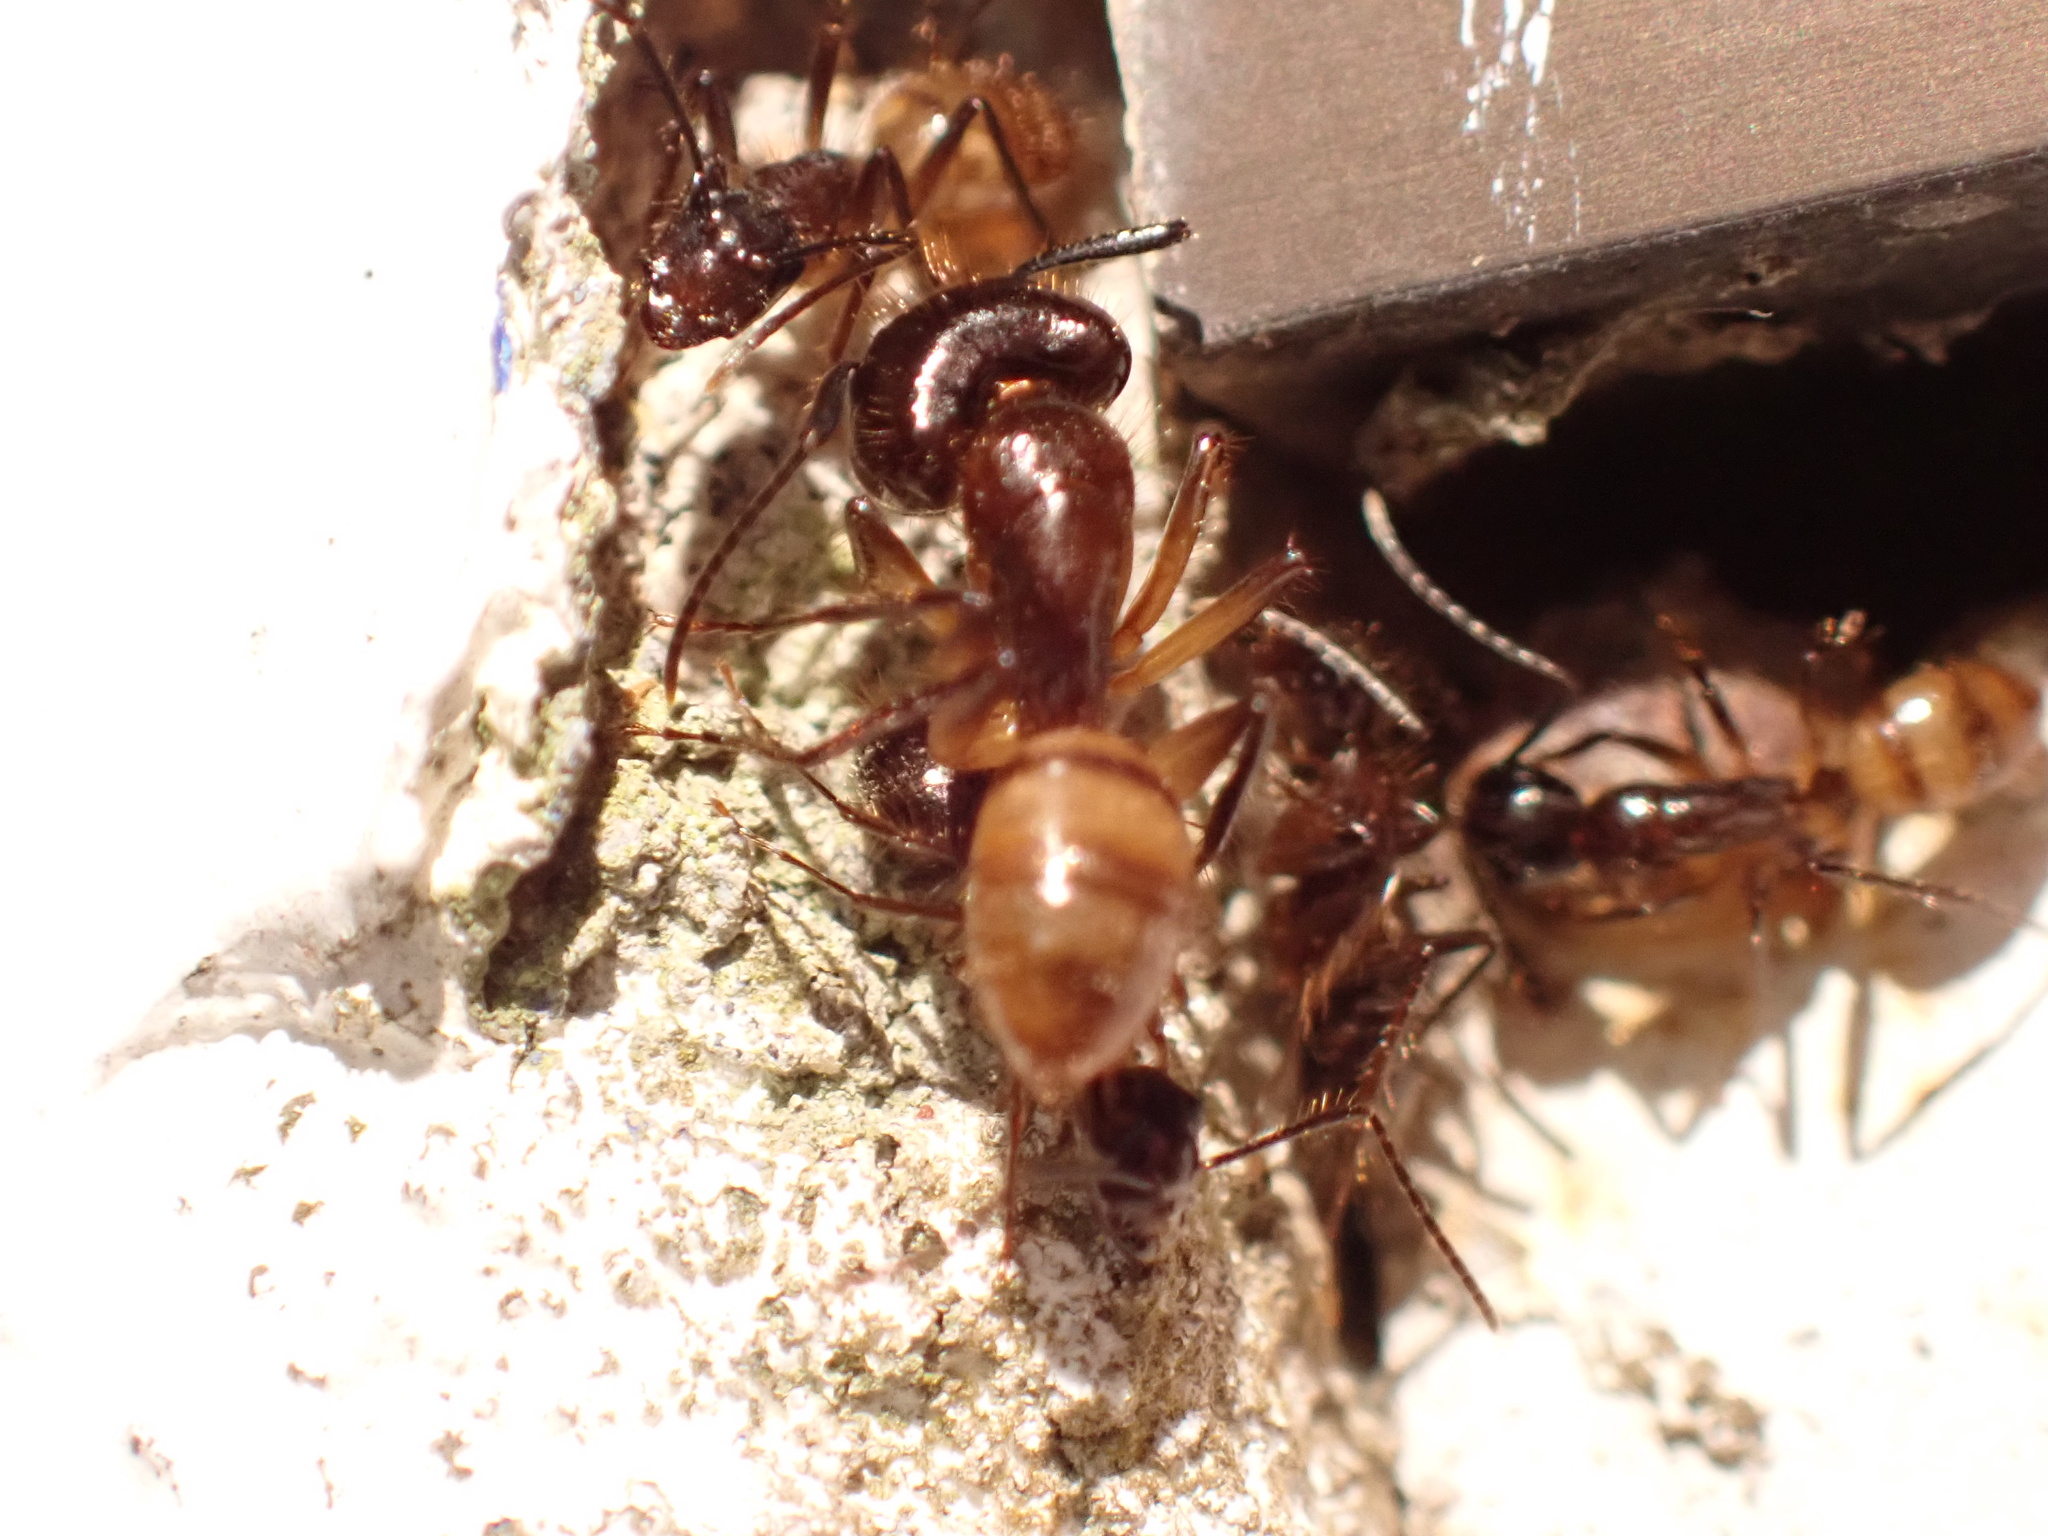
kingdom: Animalia
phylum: Arthropoda
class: Insecta
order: Hymenoptera
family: Formicidae
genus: Camponotus
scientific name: Camponotus atriceps
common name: Florida carpenter ant
